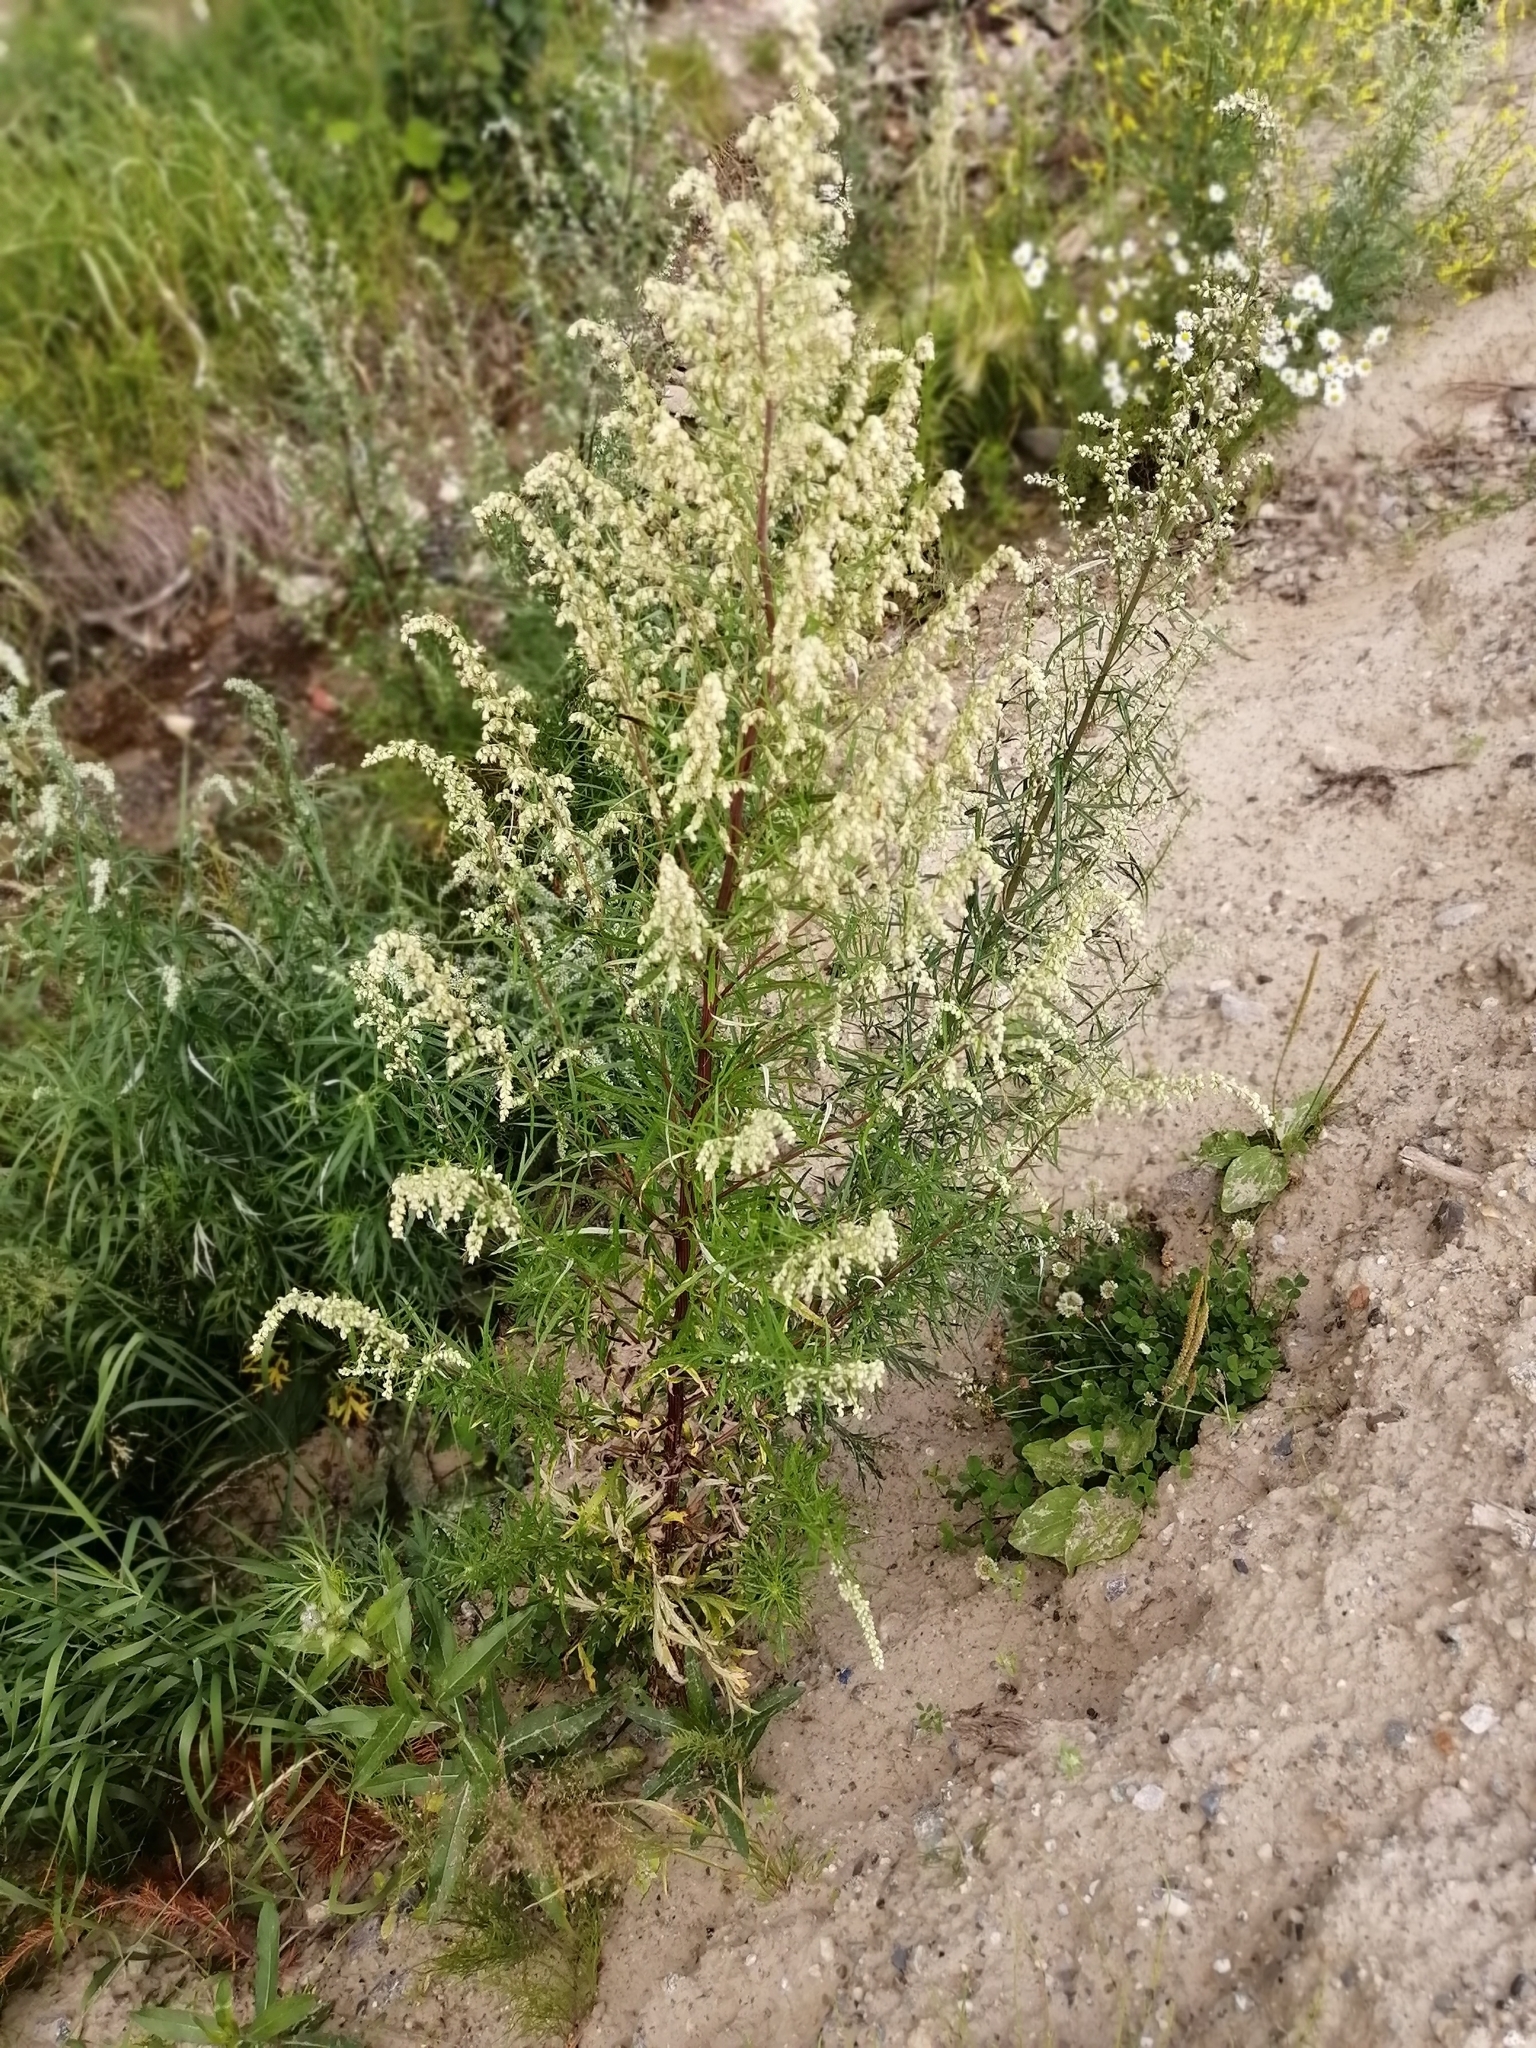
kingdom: Plantae
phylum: Tracheophyta
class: Magnoliopsida
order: Asterales
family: Asteraceae
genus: Artemisia
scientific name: Artemisia vulgaris
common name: Mugwort
